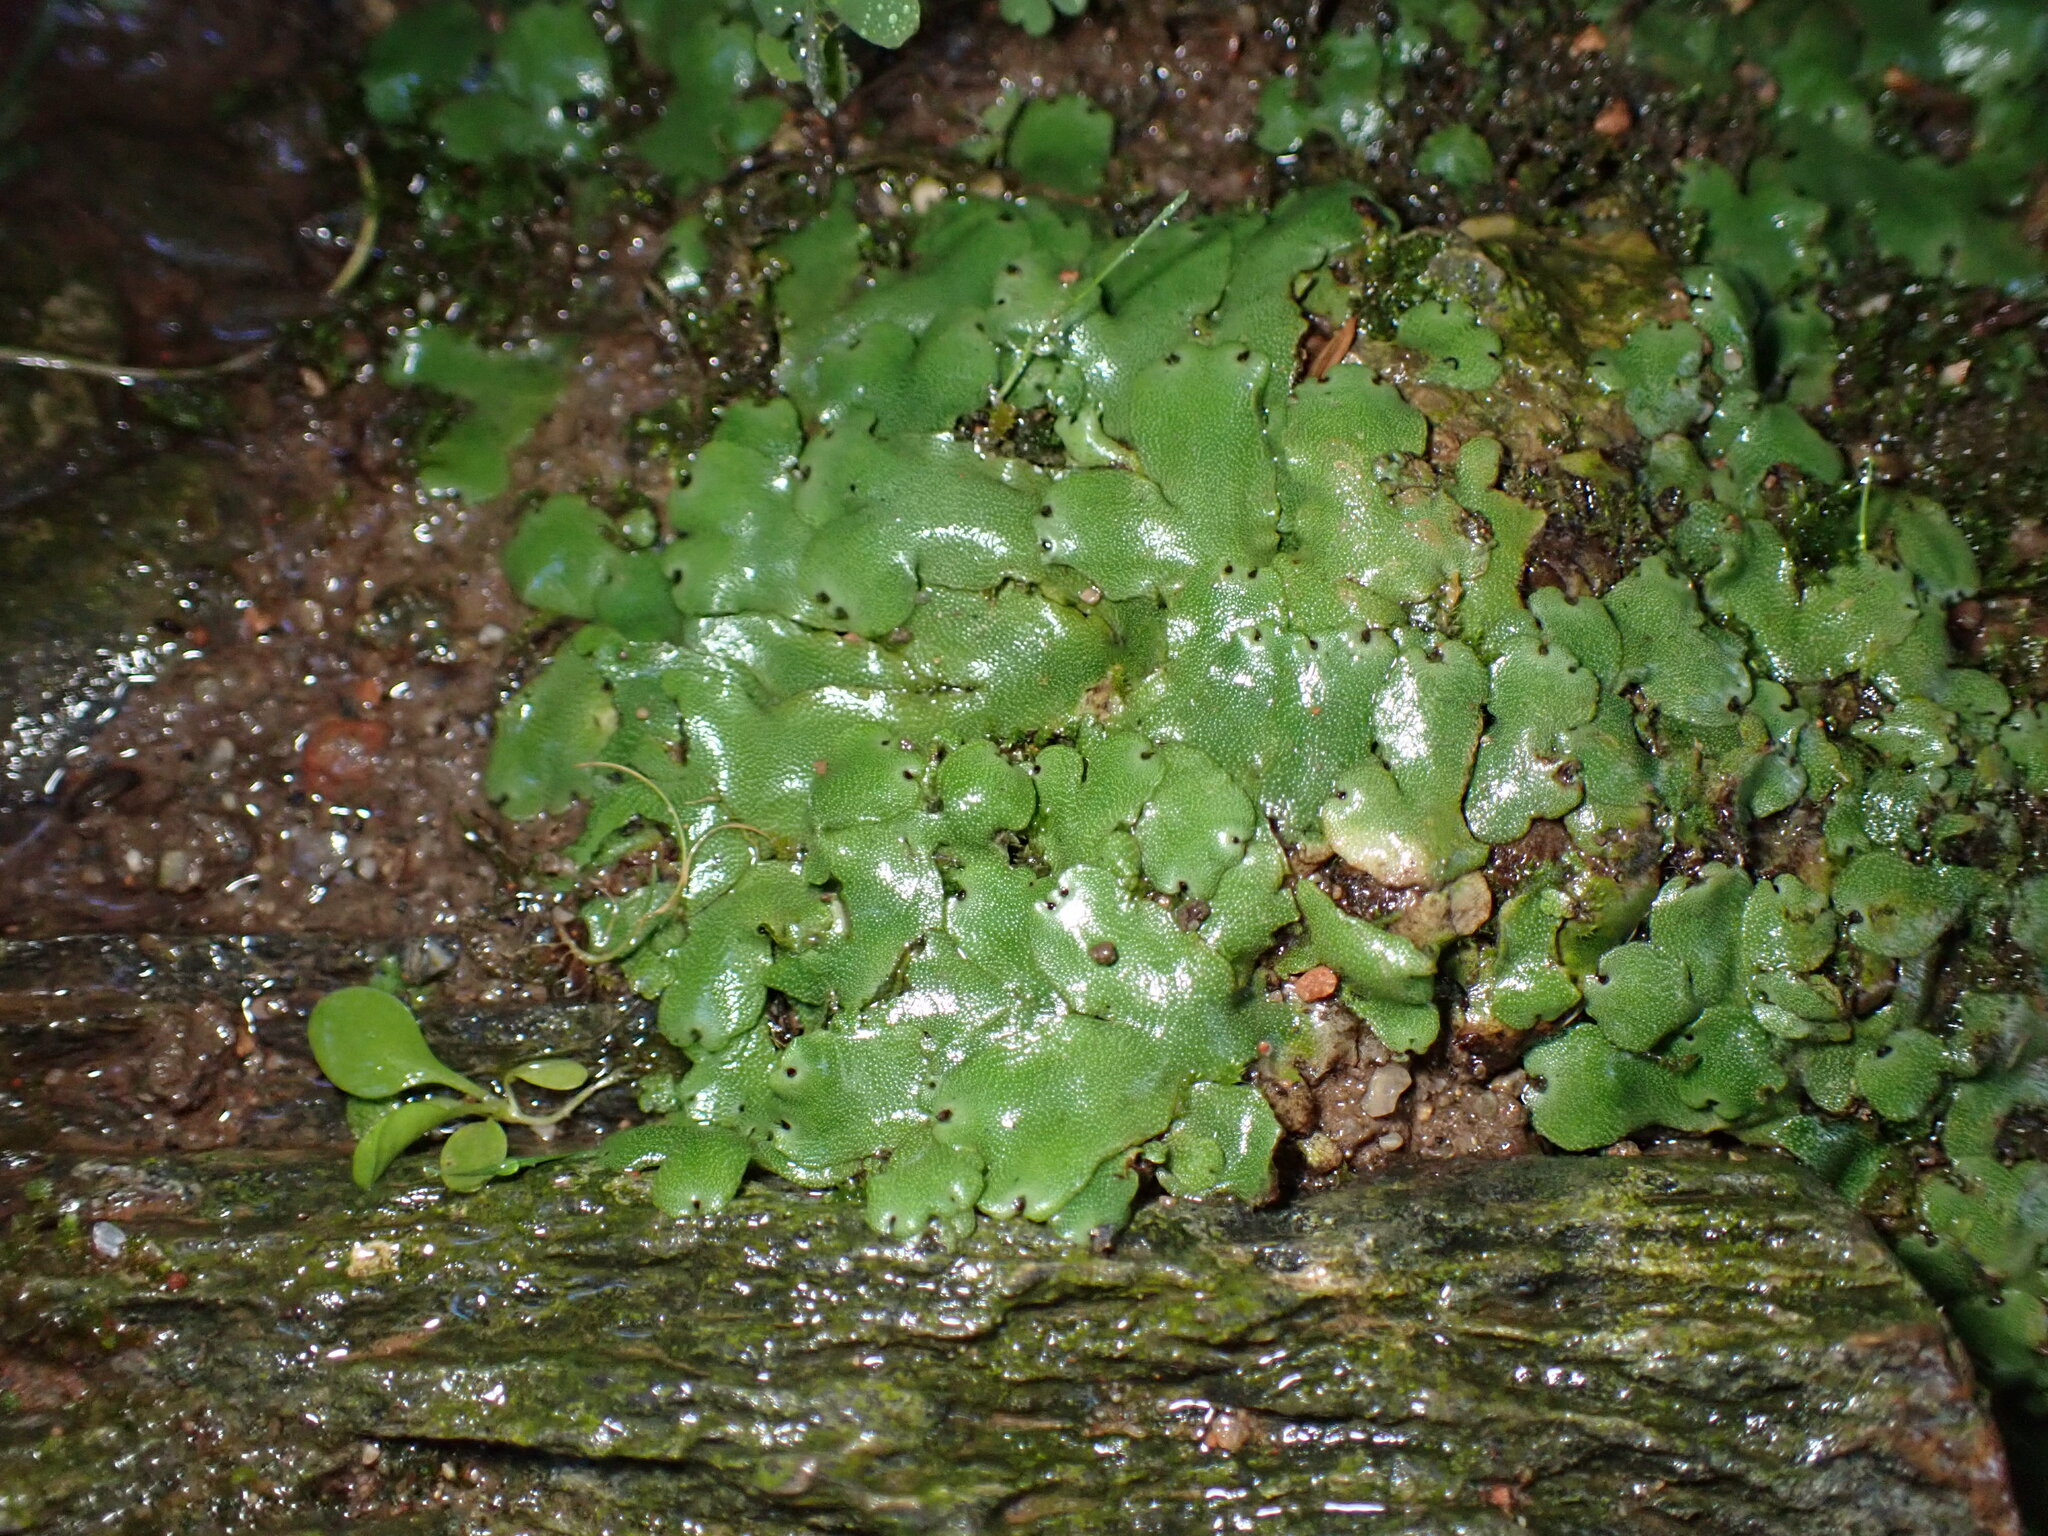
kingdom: Plantae
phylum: Marchantiophyta
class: Marchantiopsida
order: Marchantiales
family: Marchantiaceae
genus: Marchantia
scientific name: Marchantia paleacea
